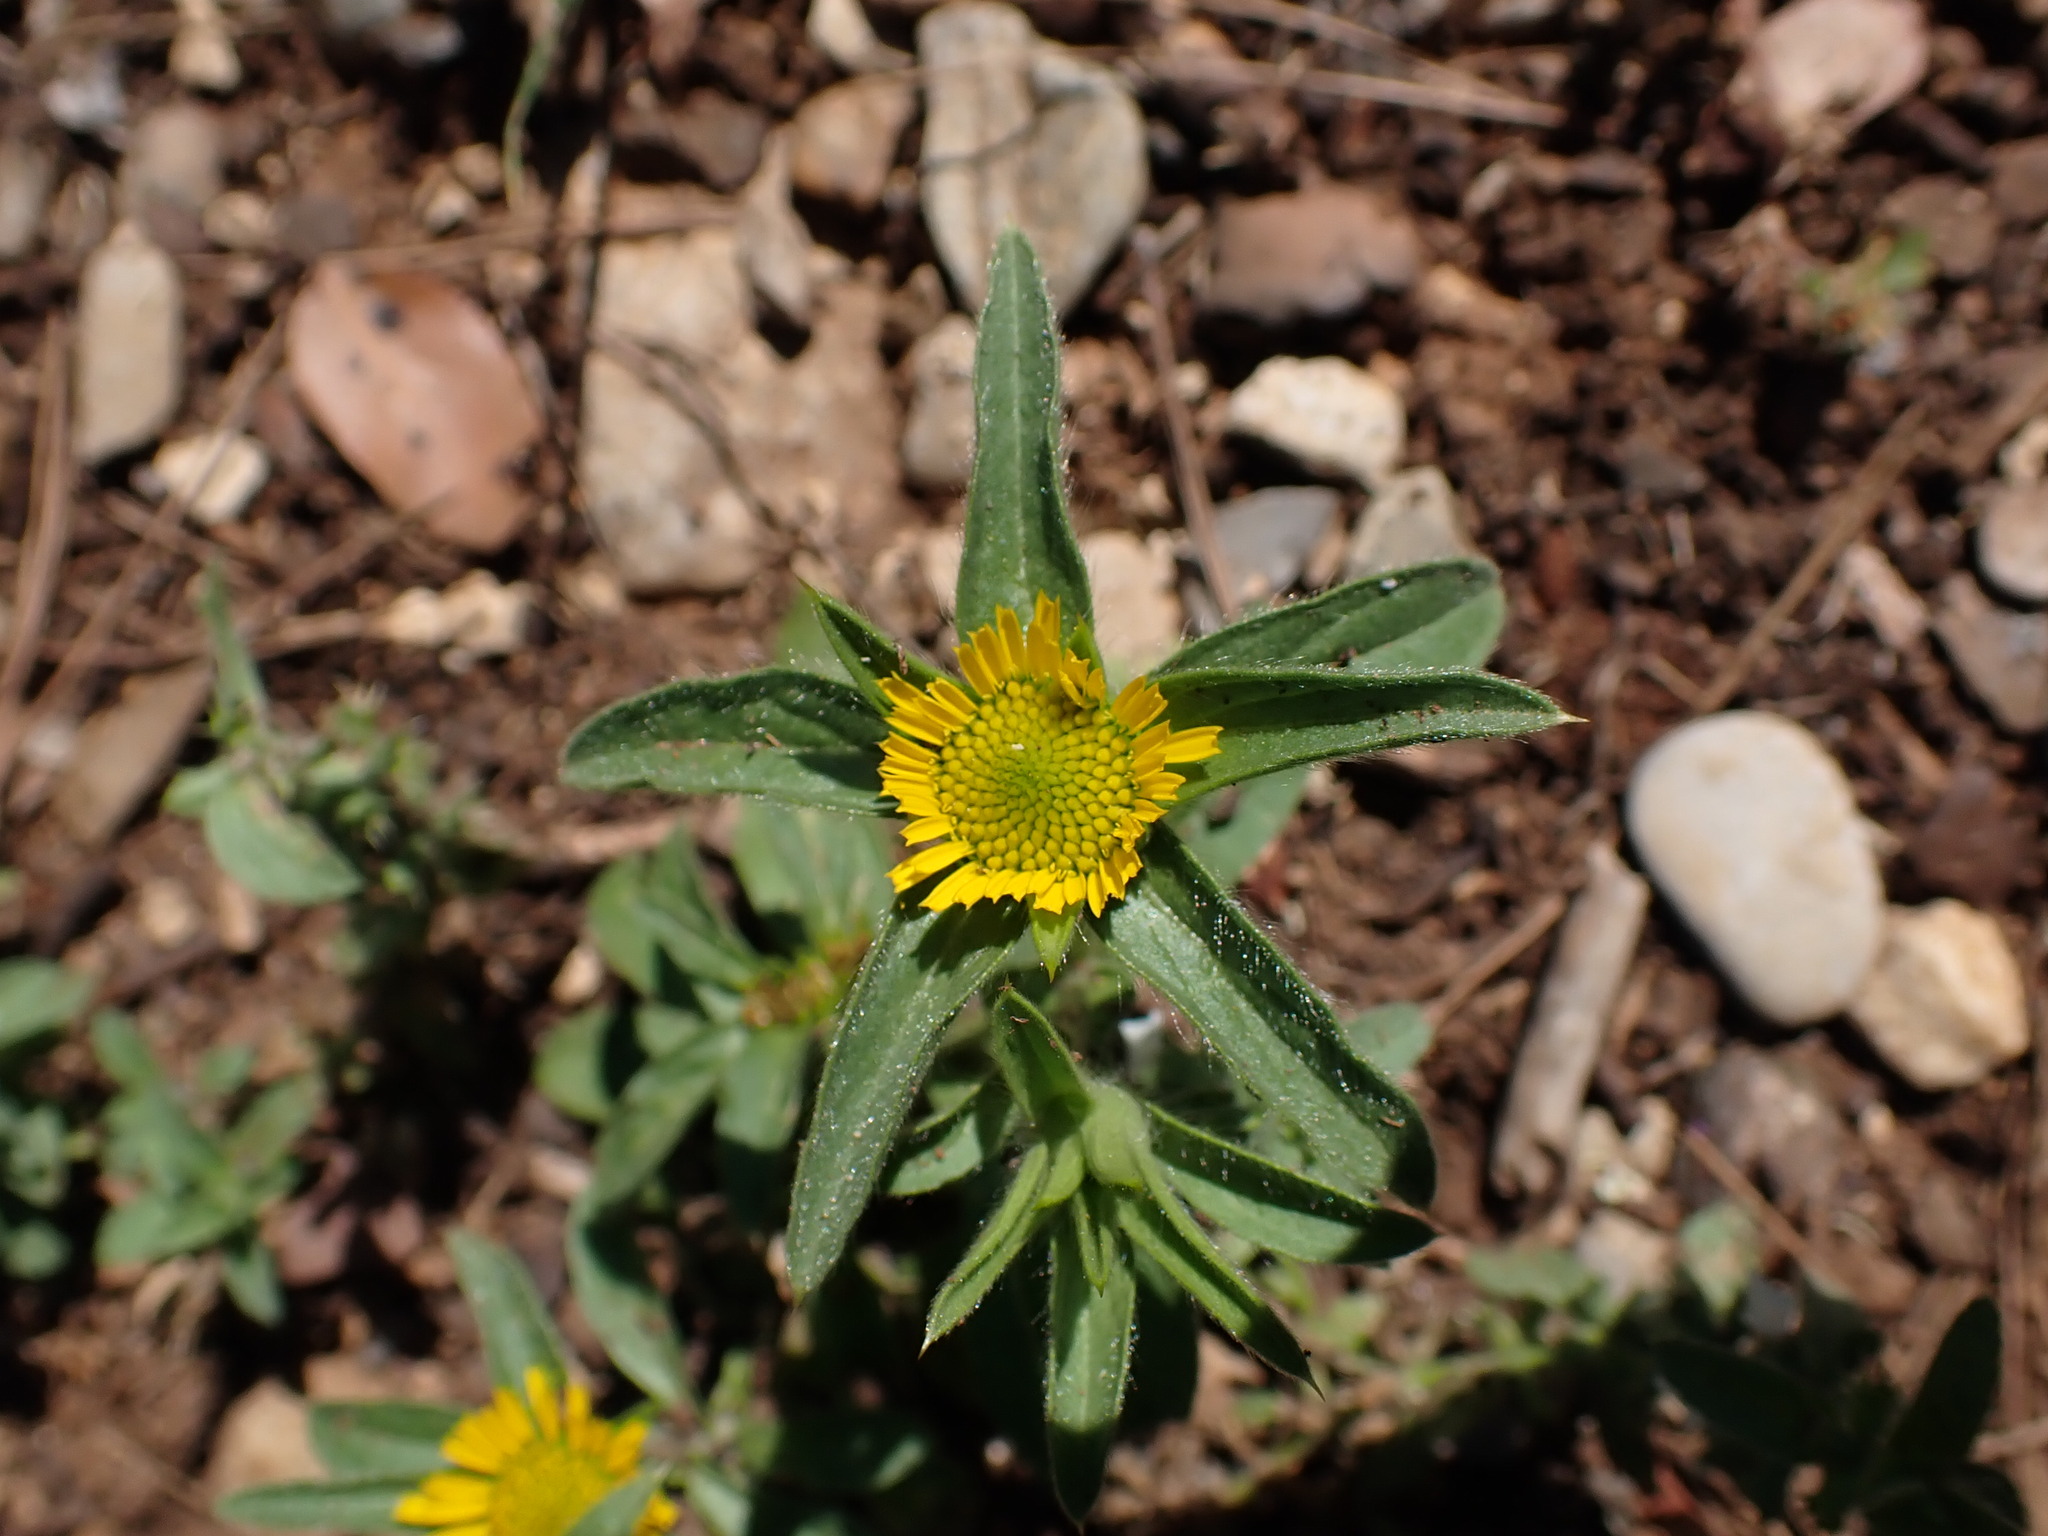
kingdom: Plantae
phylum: Tracheophyta
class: Magnoliopsida
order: Asterales
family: Asteraceae
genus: Pallenis
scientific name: Pallenis spinosa
